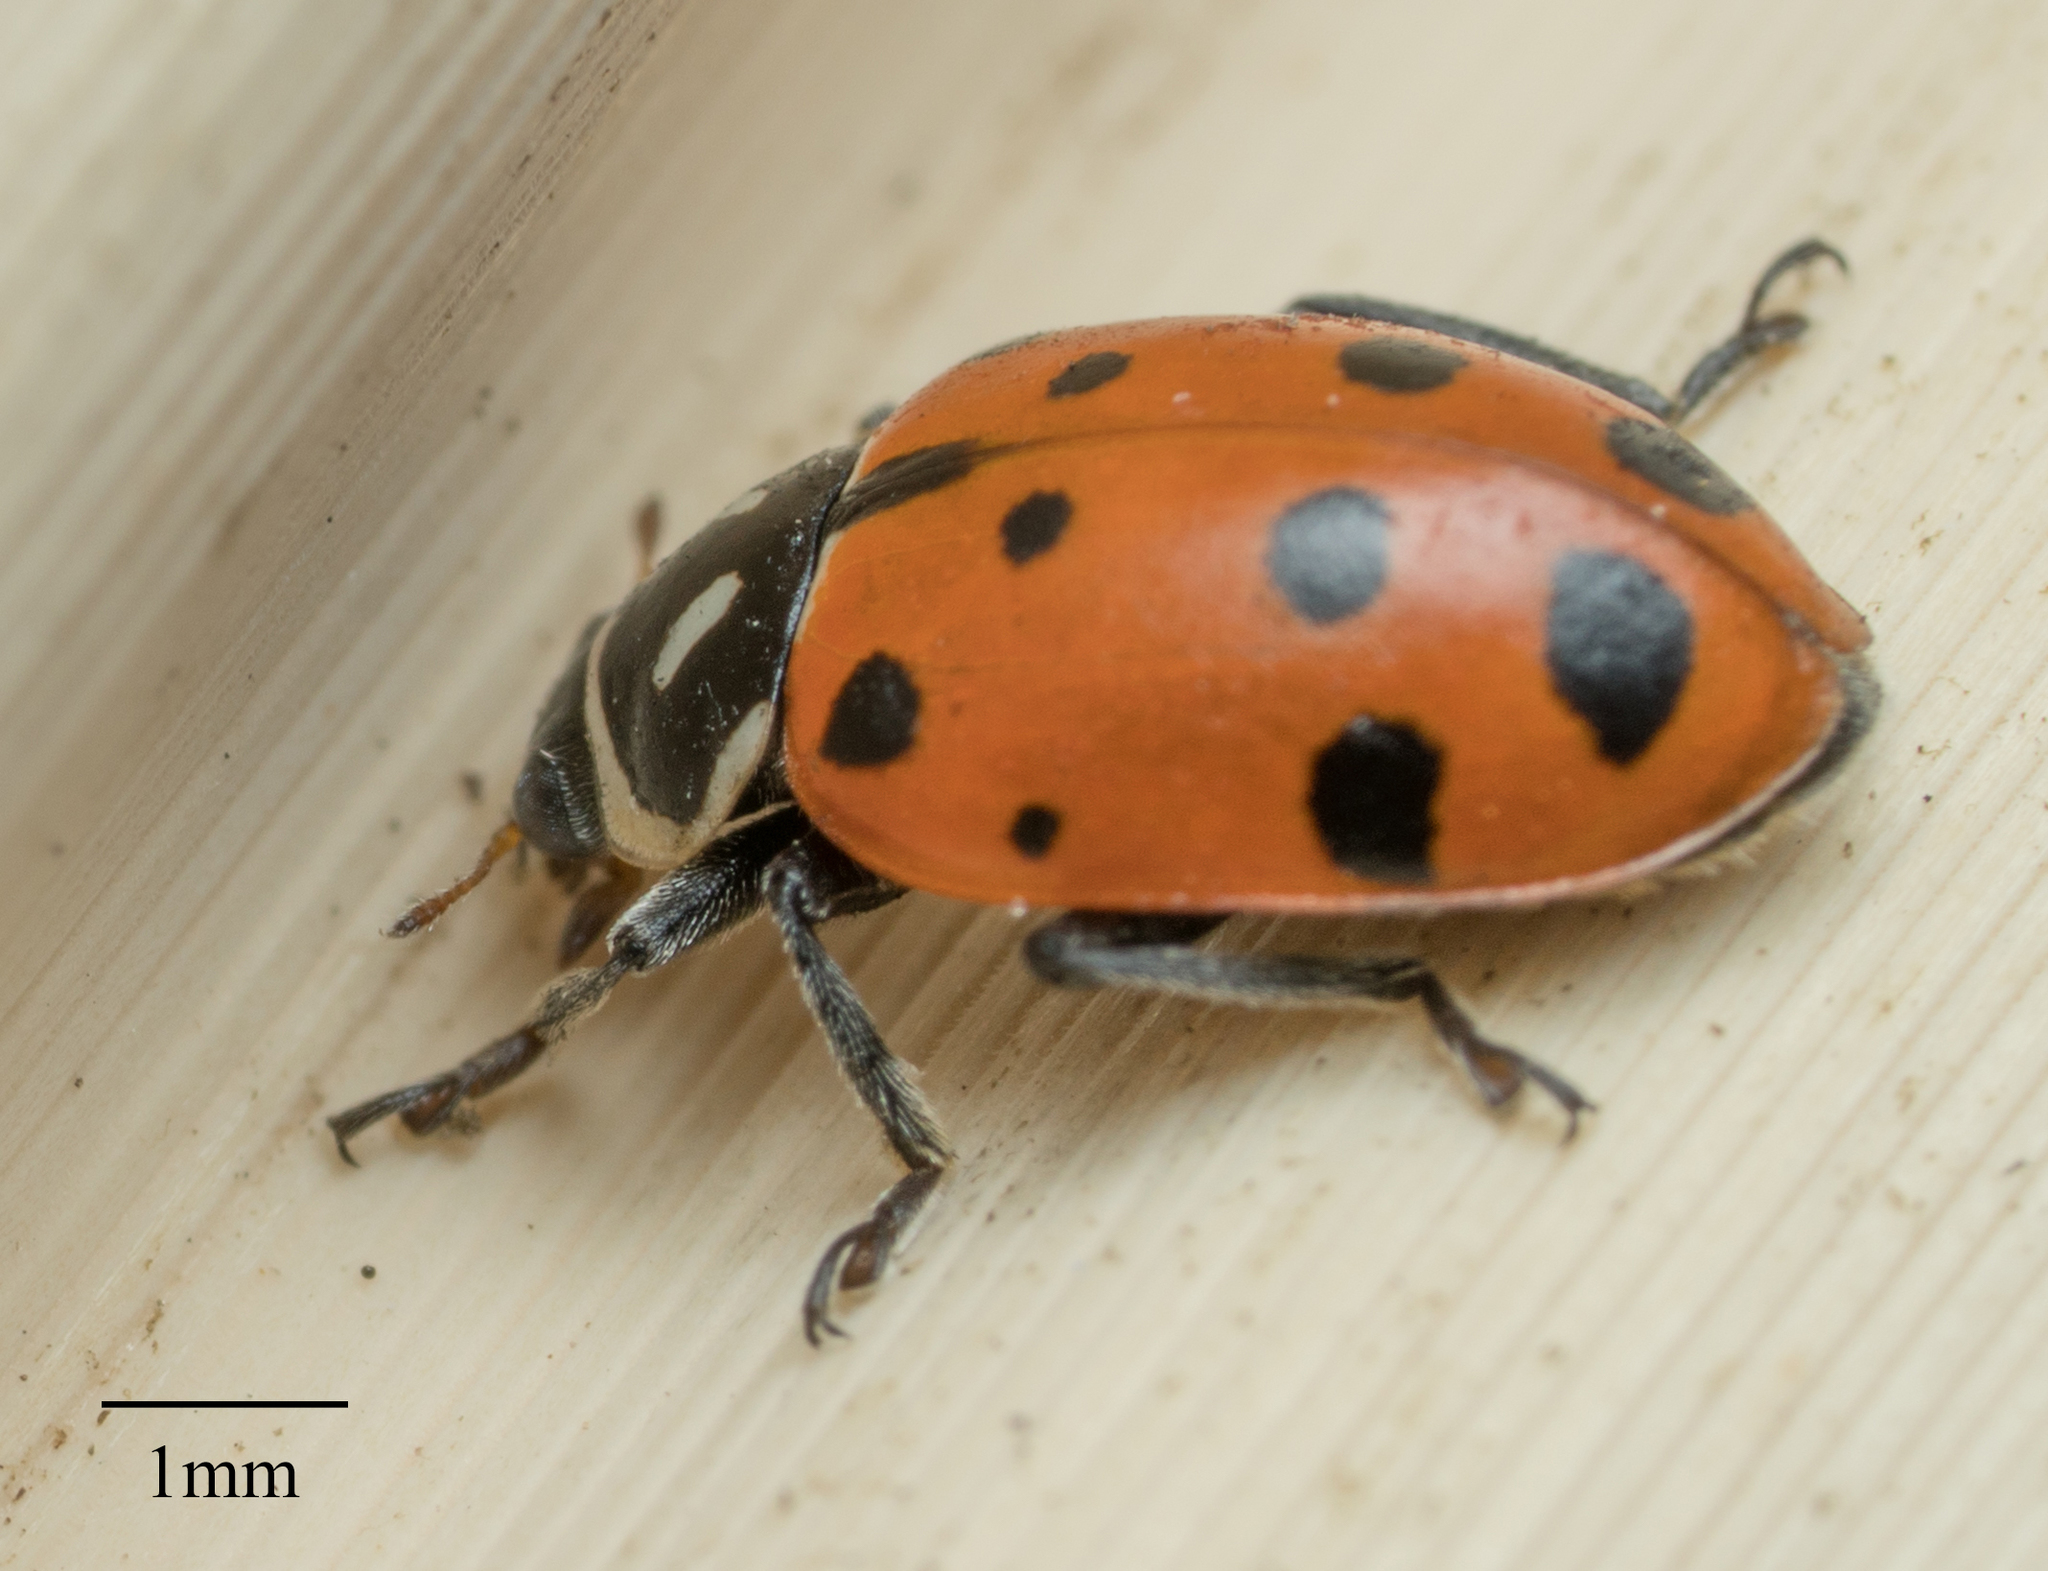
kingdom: Animalia
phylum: Arthropoda
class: Insecta
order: Coleoptera
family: Coccinellidae
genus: Hippodamia
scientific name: Hippodamia convergens
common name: Convergent lady beetle
